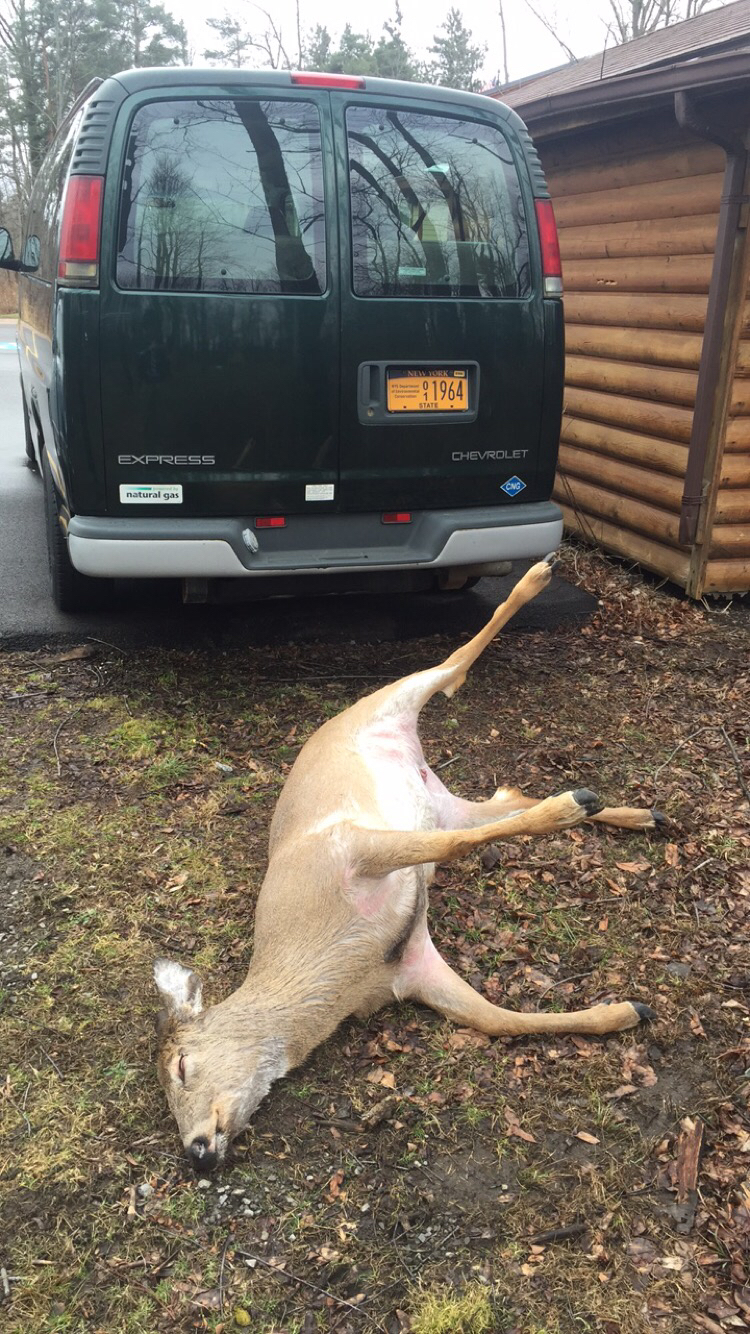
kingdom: Animalia
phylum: Chordata
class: Mammalia
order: Artiodactyla
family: Cervidae
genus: Odocoileus
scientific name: Odocoileus virginianus
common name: White-tailed deer
